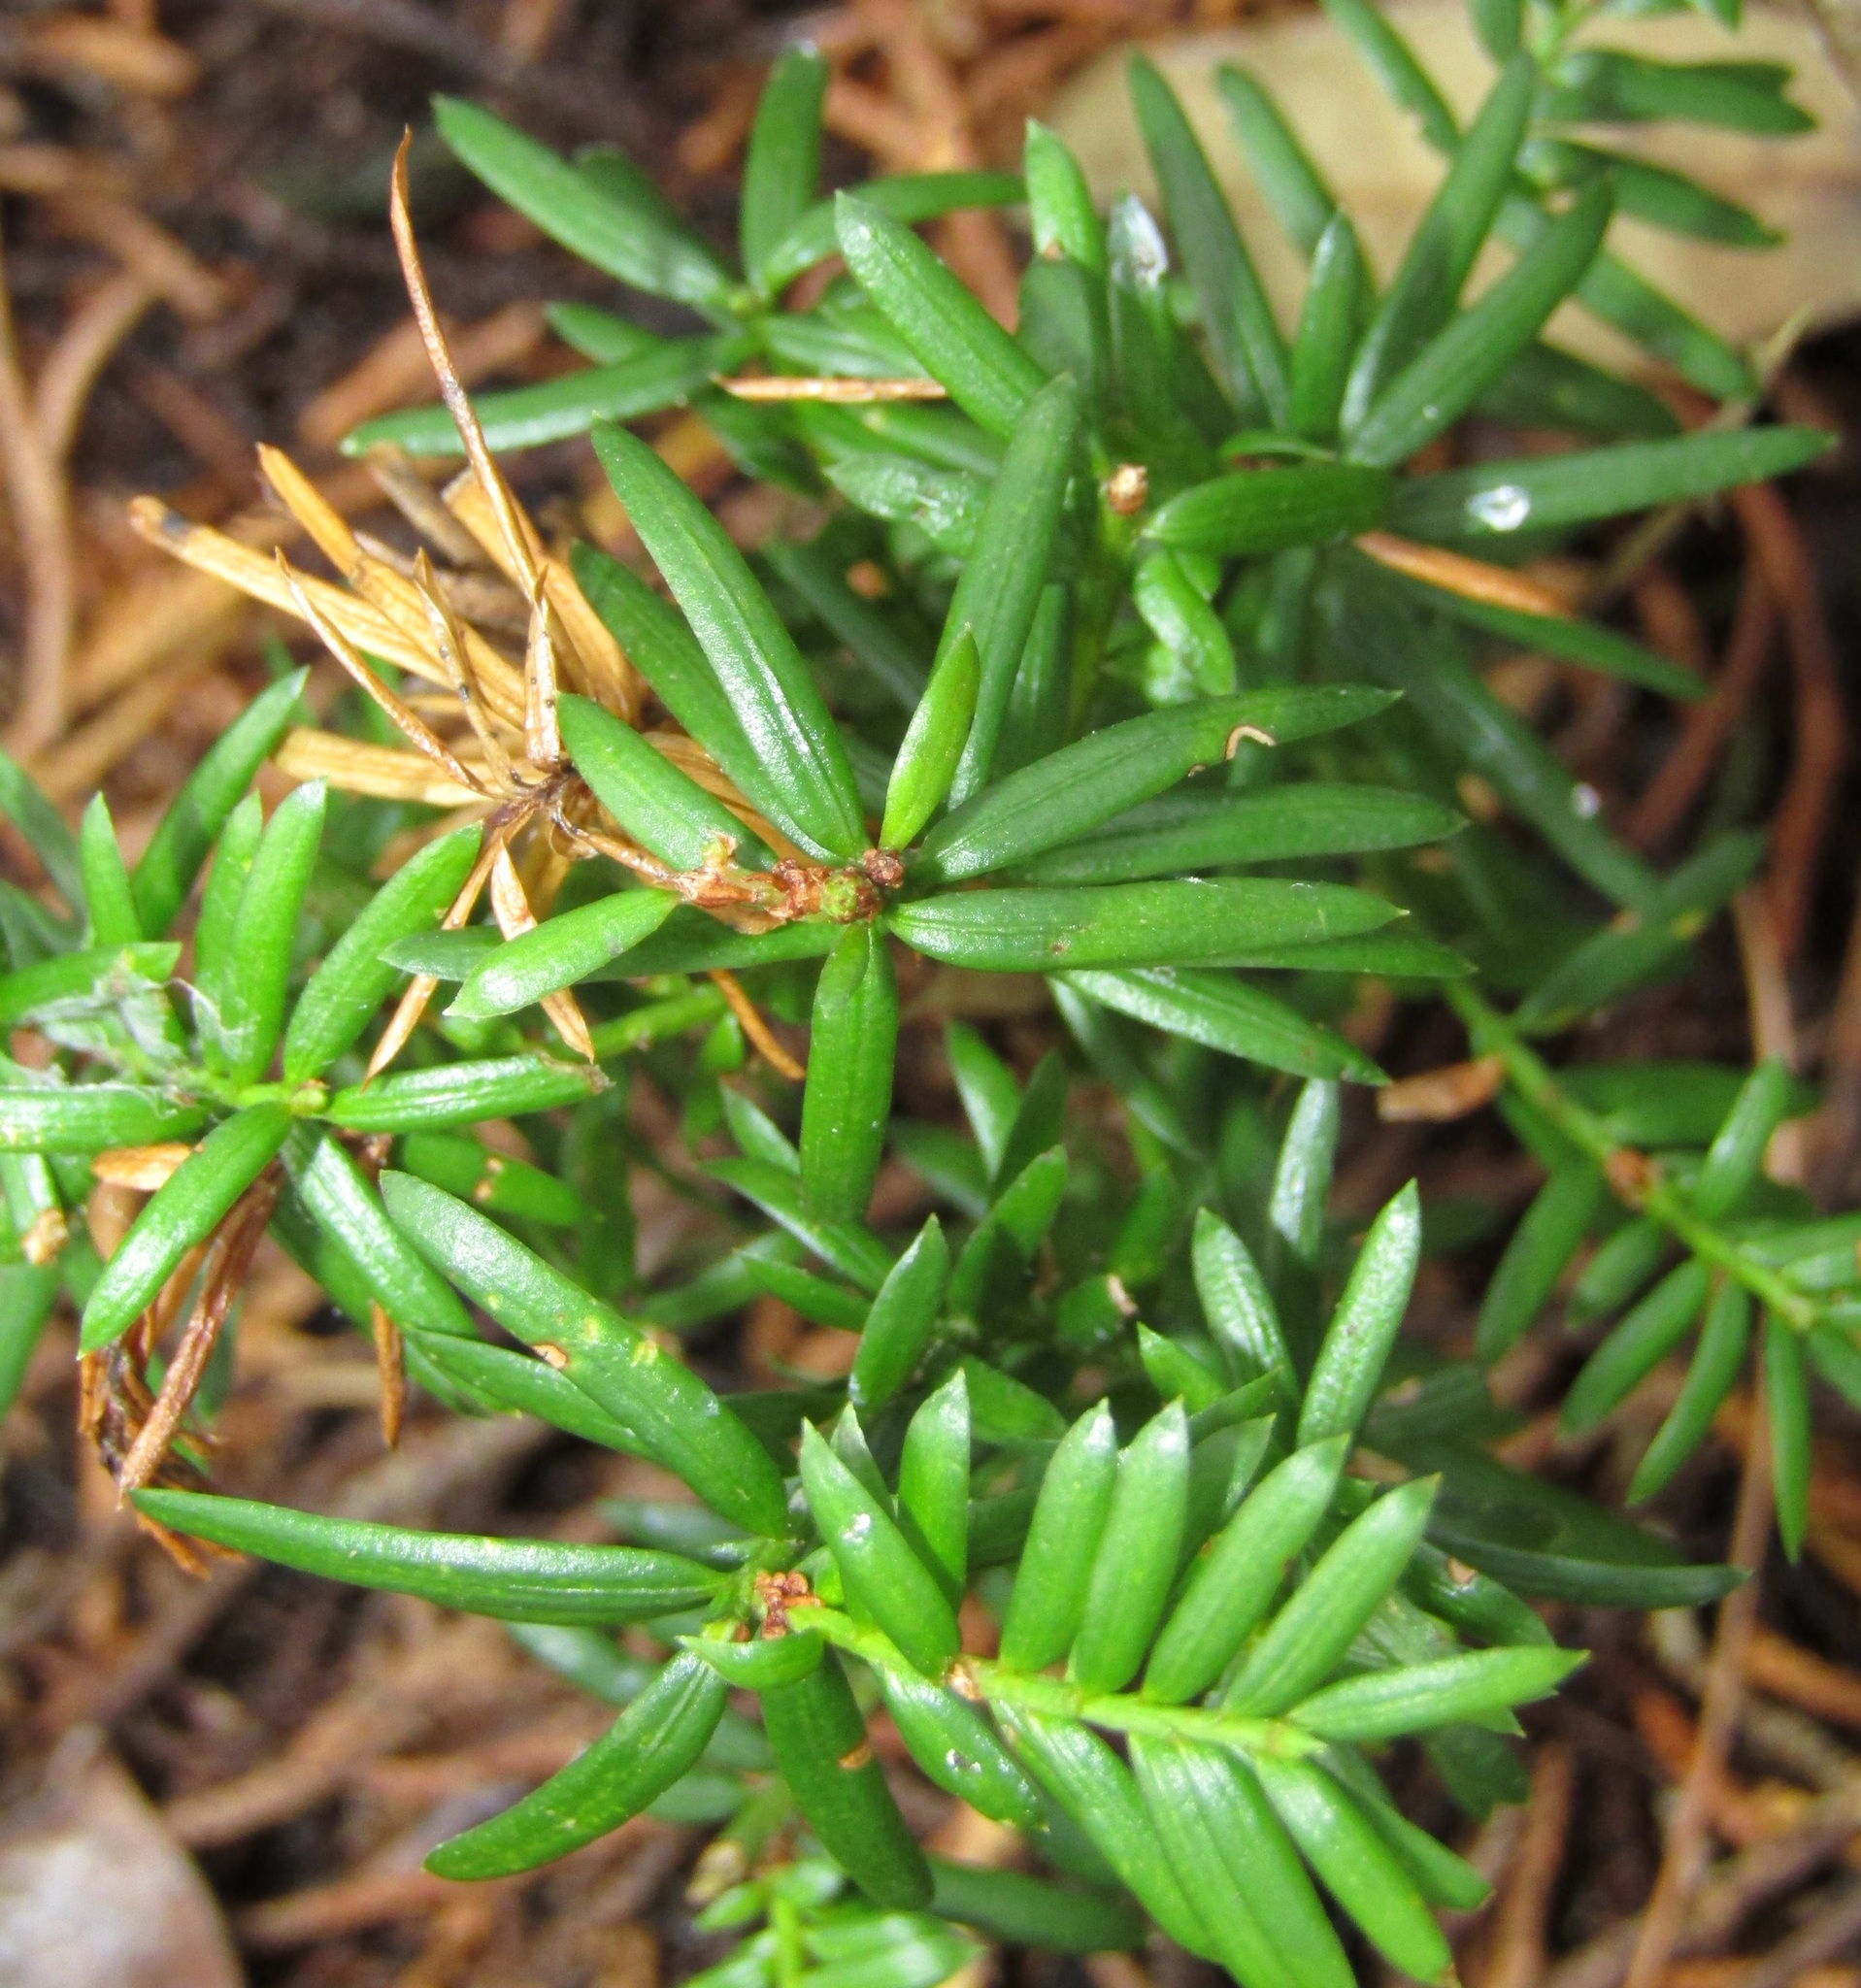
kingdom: Plantae
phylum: Tracheophyta
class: Pinopsida
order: Pinales
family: Taxaceae
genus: Taxus
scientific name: Taxus baccata
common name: Yew
